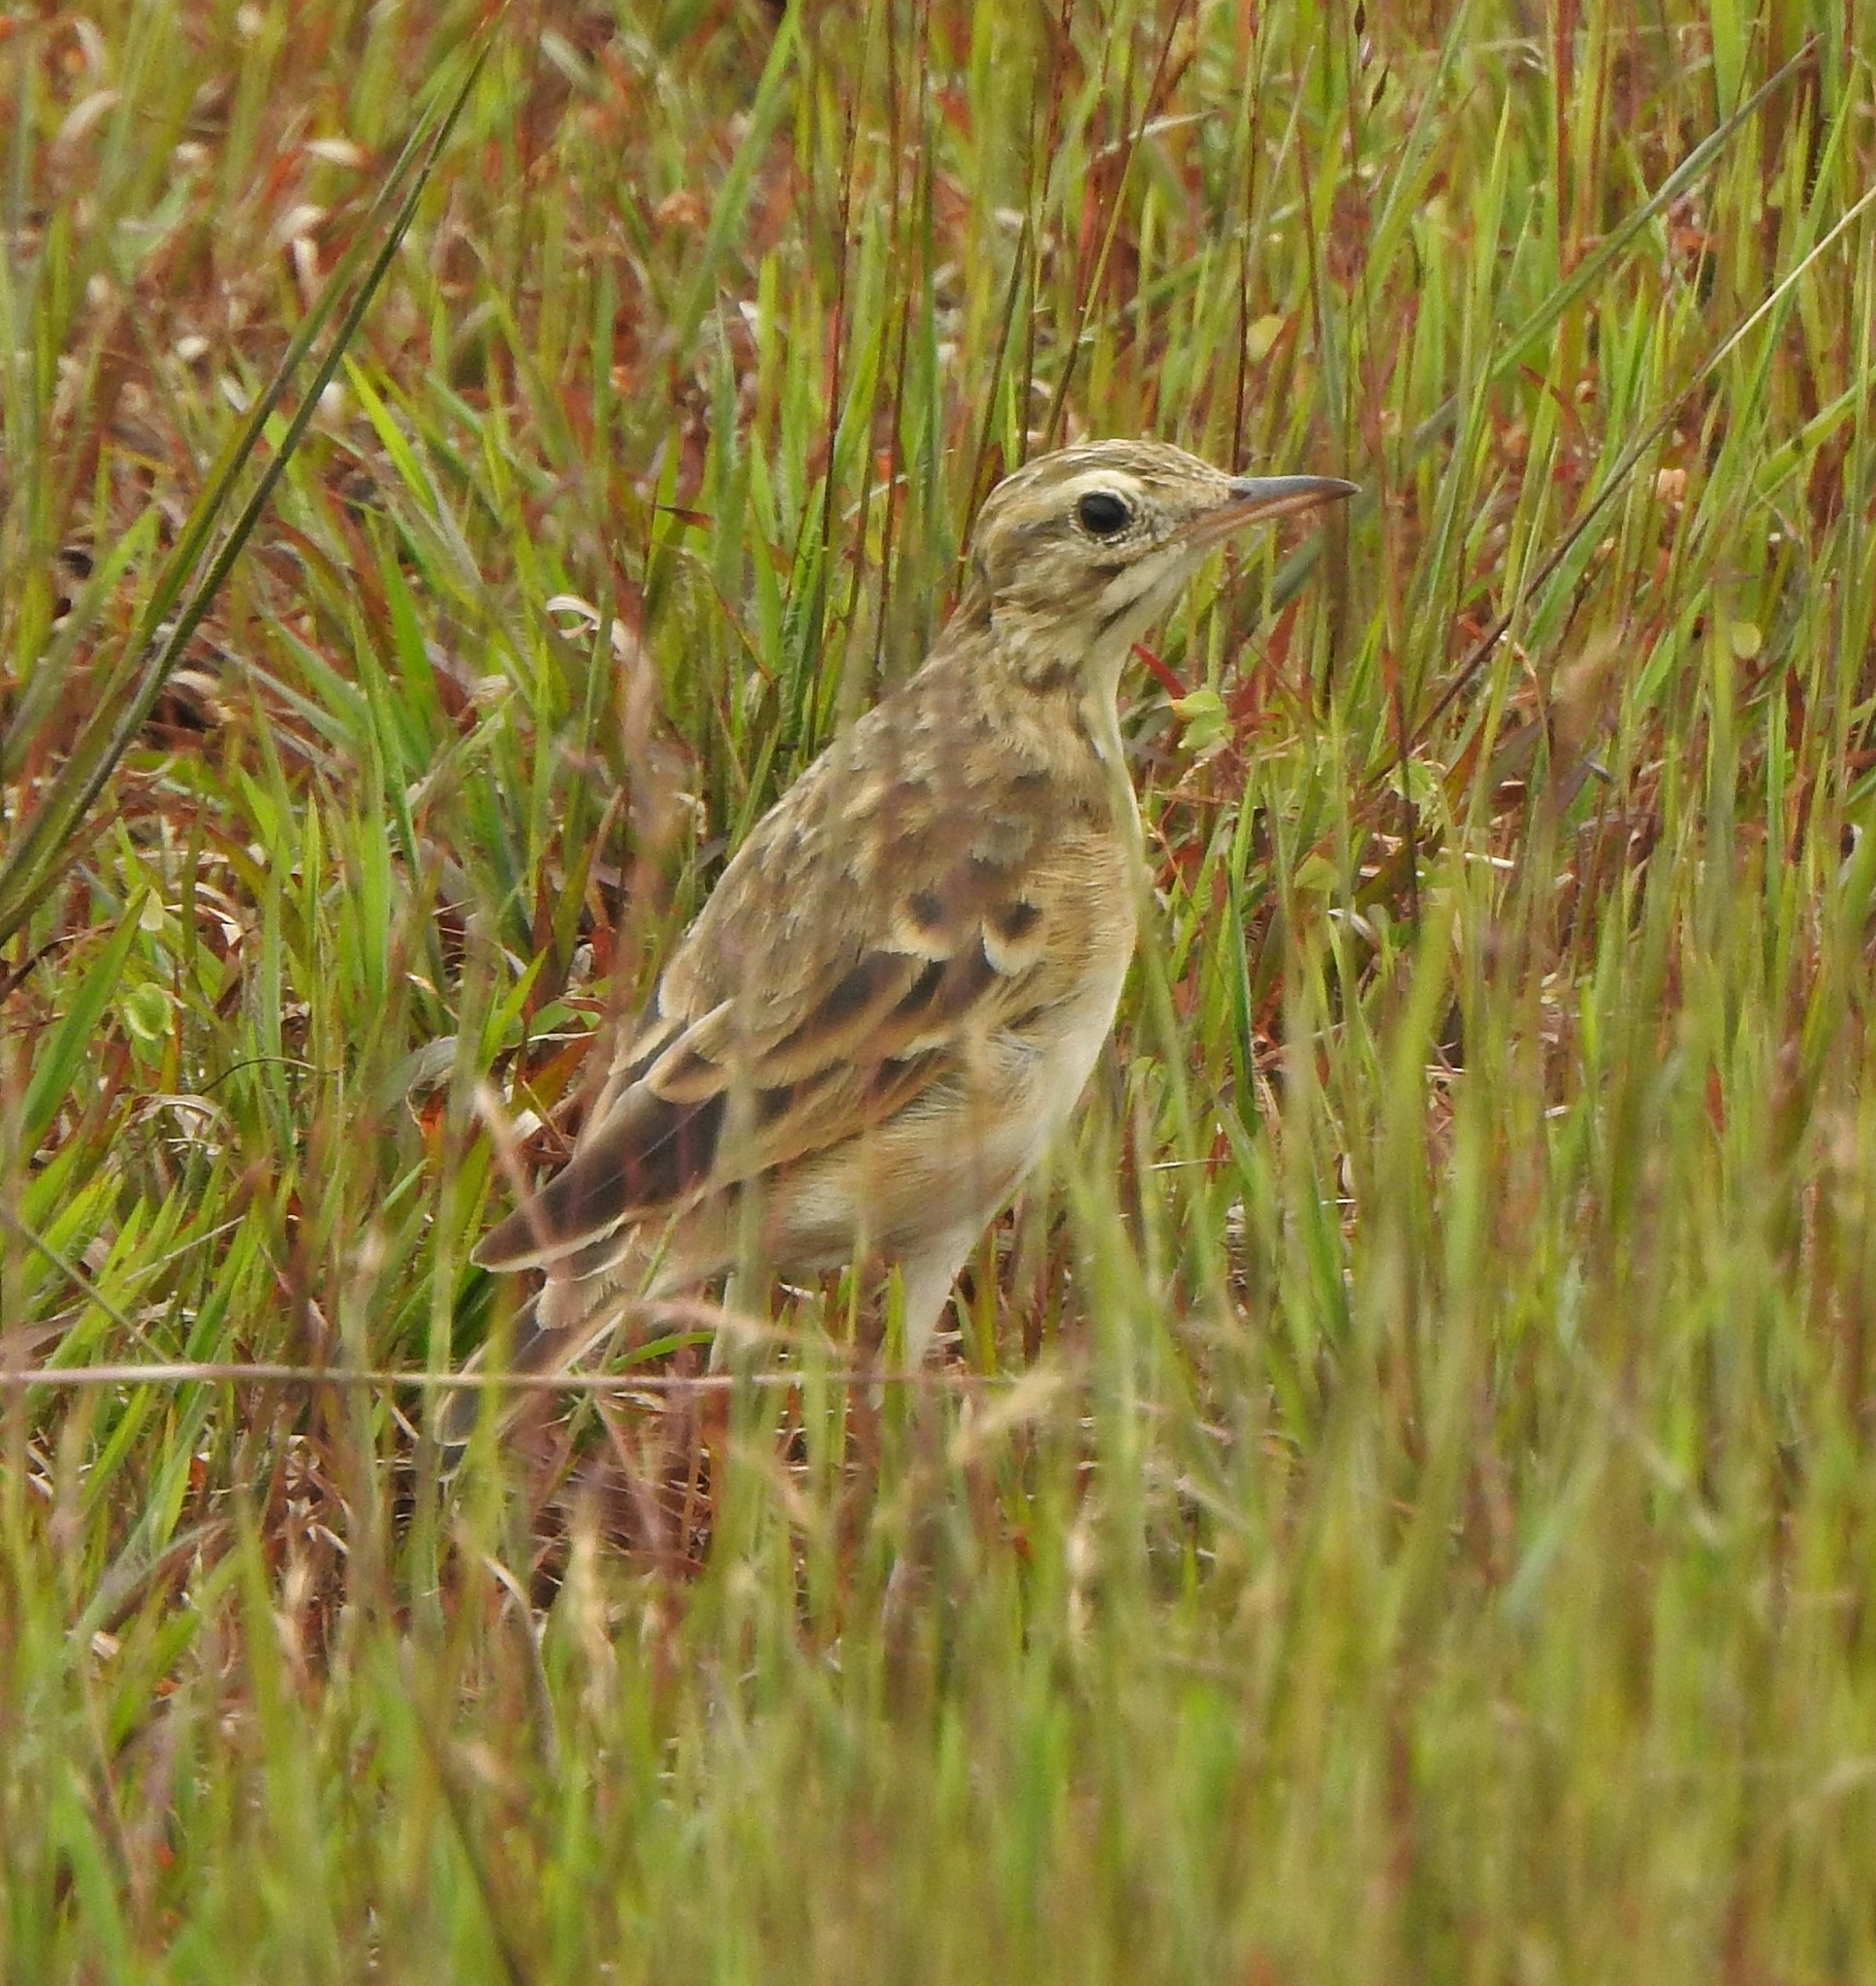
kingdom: Animalia
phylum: Chordata
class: Aves
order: Passeriformes
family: Motacillidae
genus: Anthus
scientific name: Anthus rufulus
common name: Paddyfield pipit
